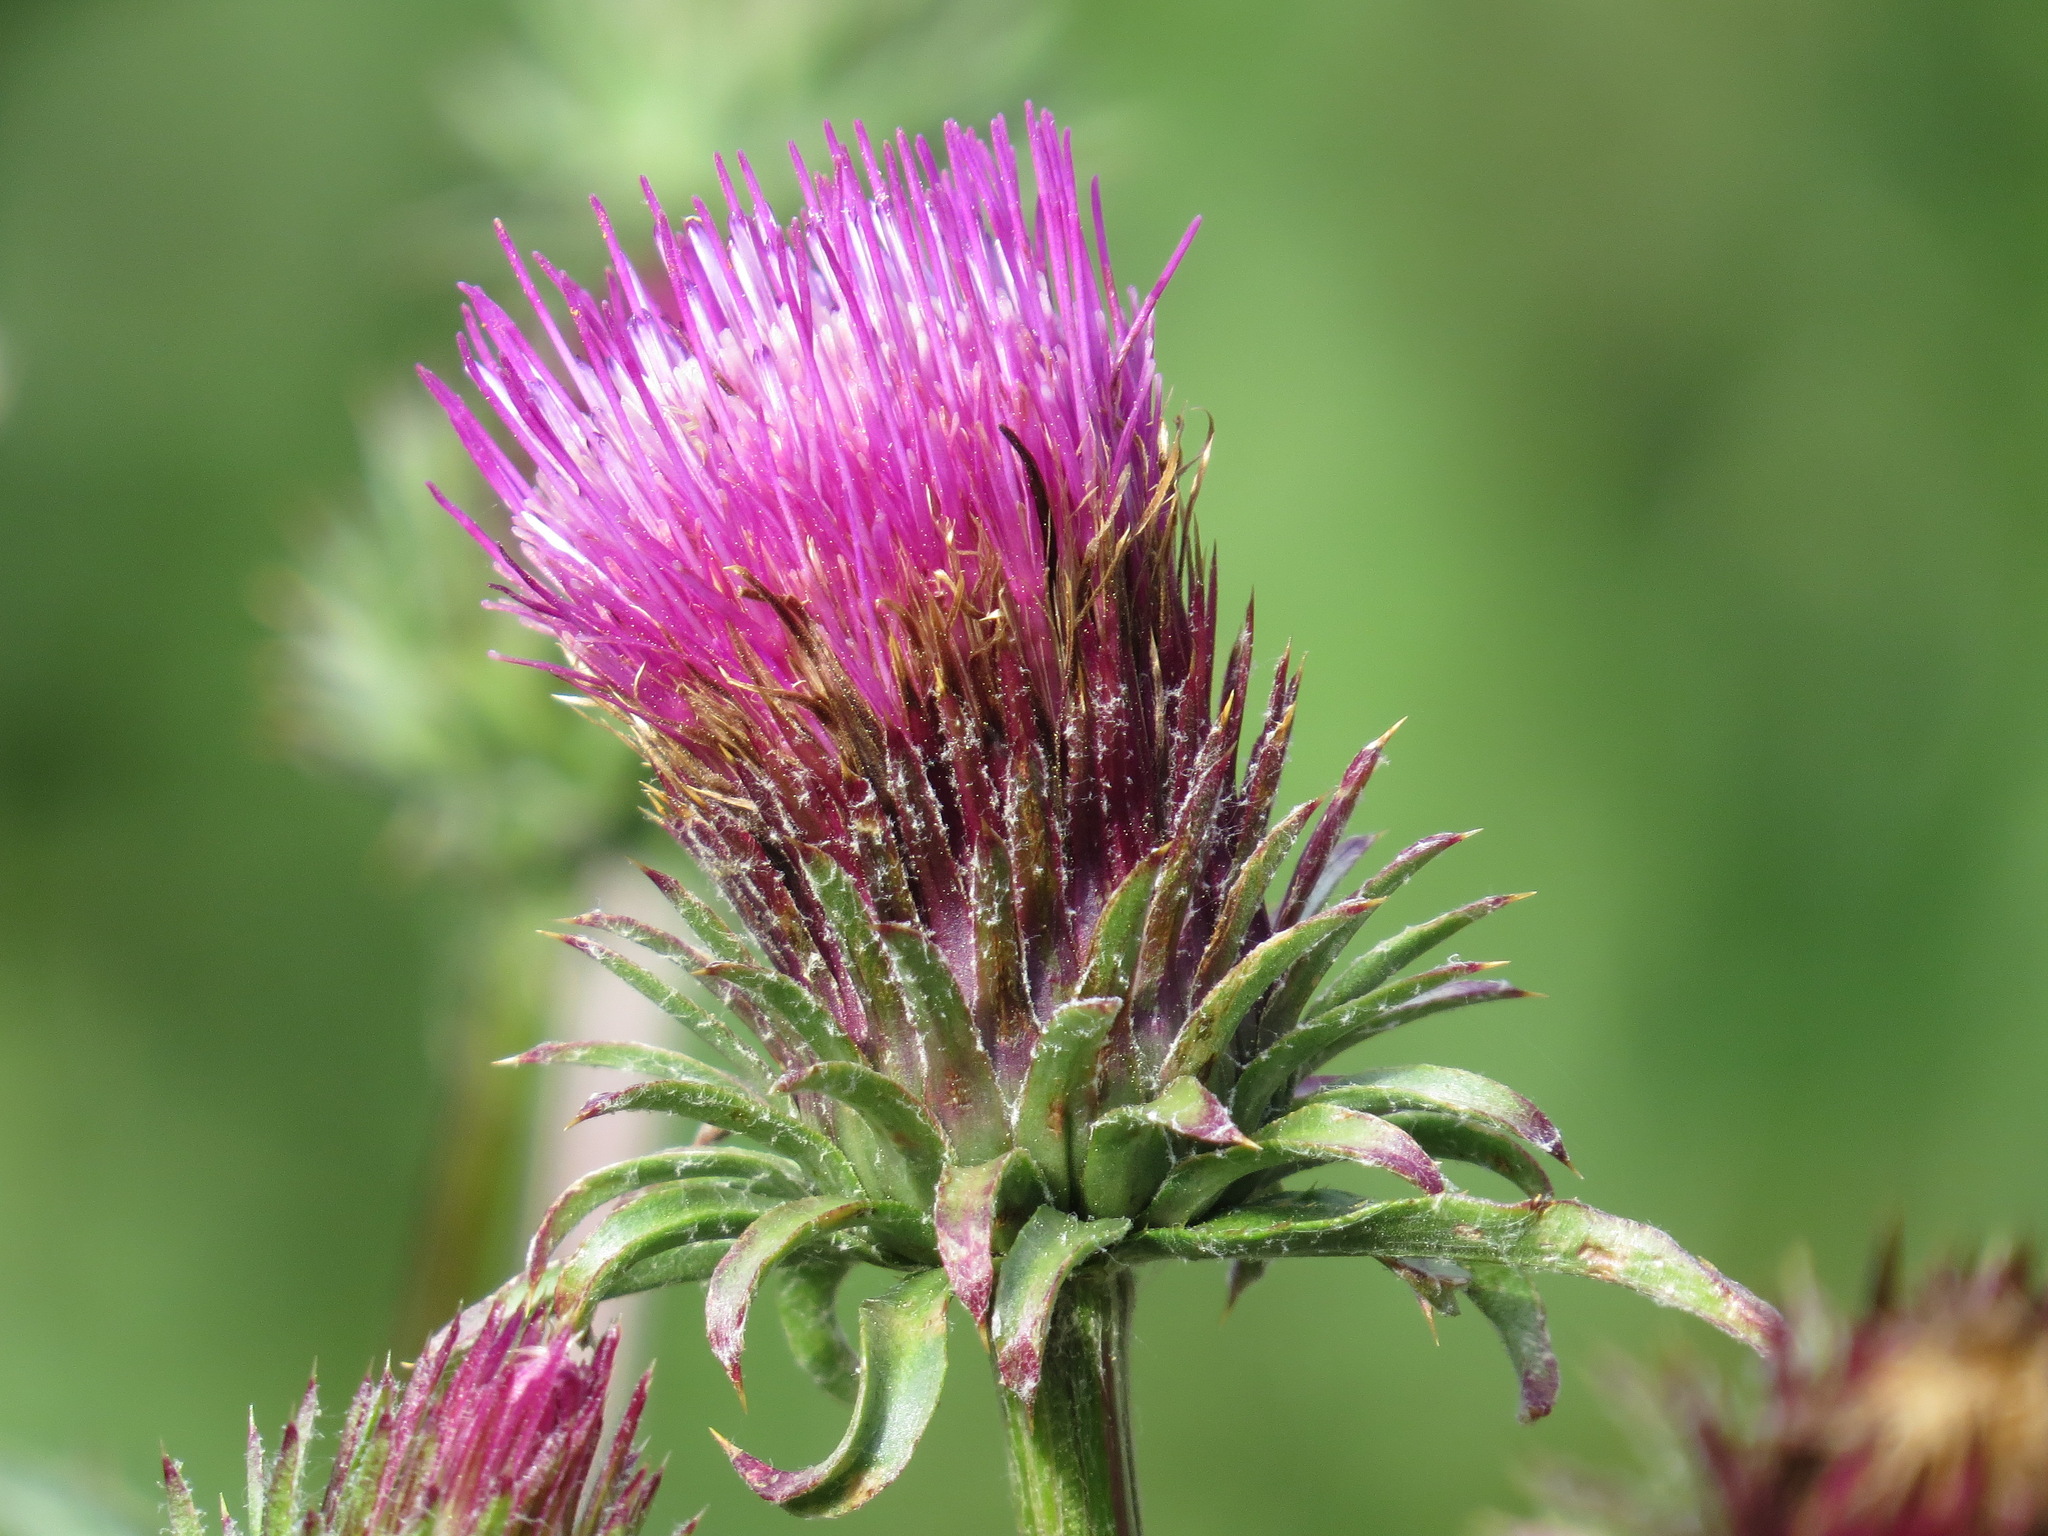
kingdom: Plantae
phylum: Tracheophyta
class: Magnoliopsida
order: Asterales
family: Asteraceae
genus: Cirsium
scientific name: Cirsium andersonii
